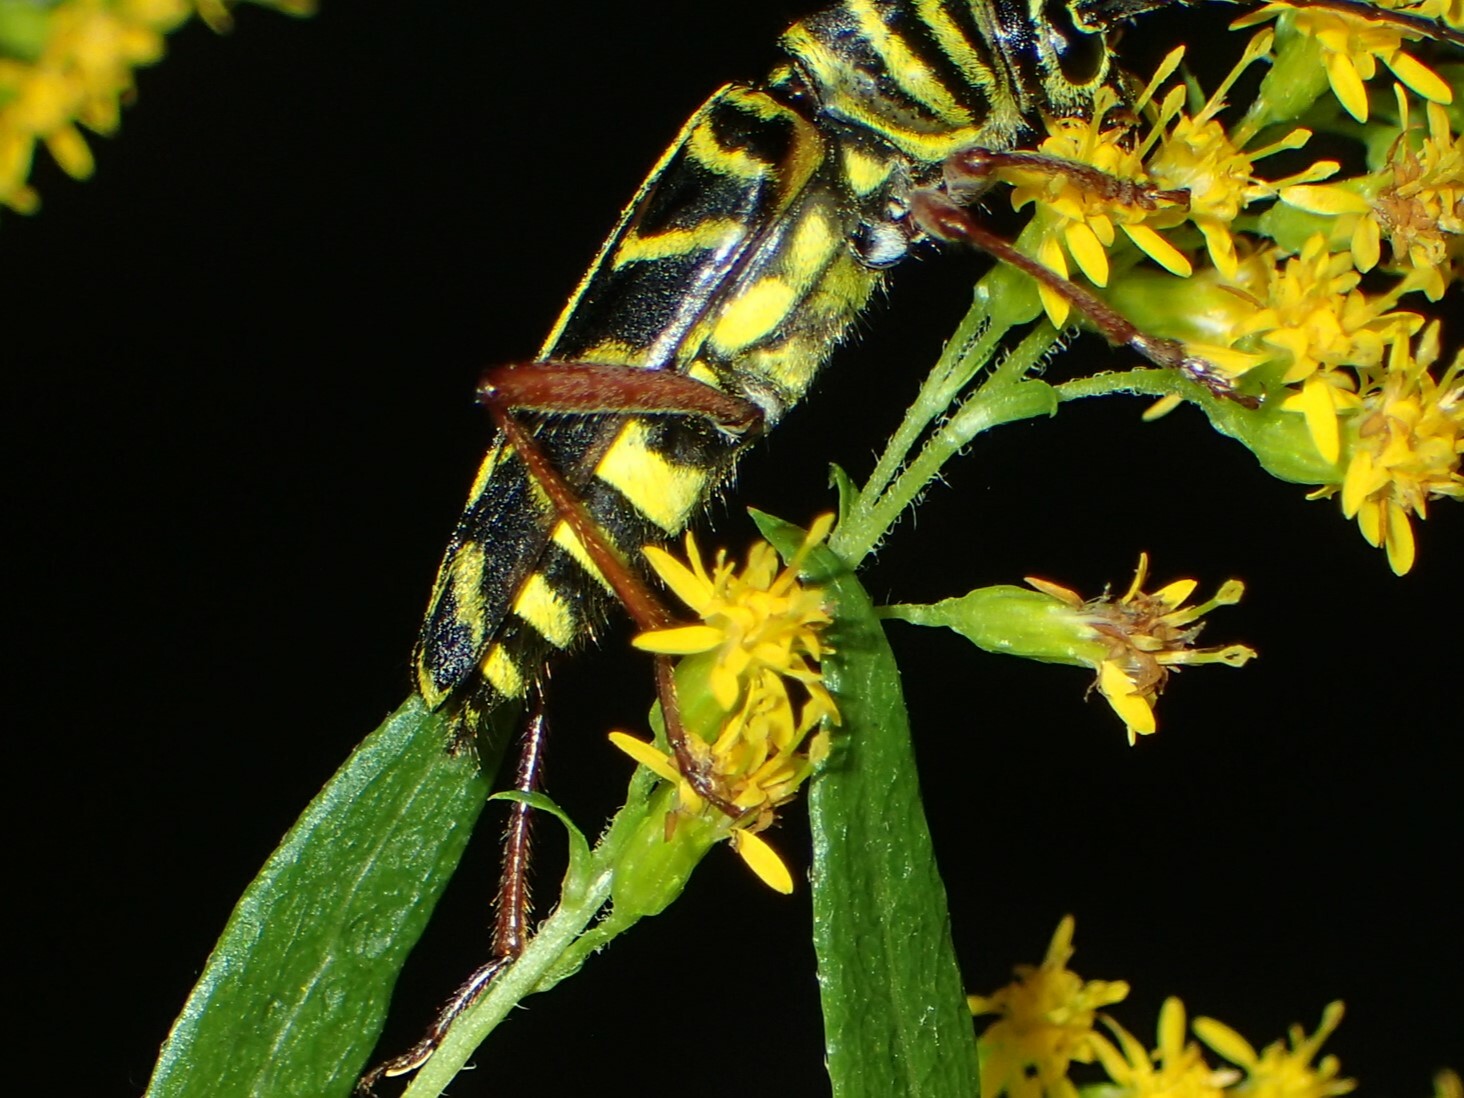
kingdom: Animalia
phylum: Arthropoda
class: Insecta
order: Coleoptera
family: Cerambycidae
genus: Megacyllene
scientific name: Megacyllene robiniae
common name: Locust borer
